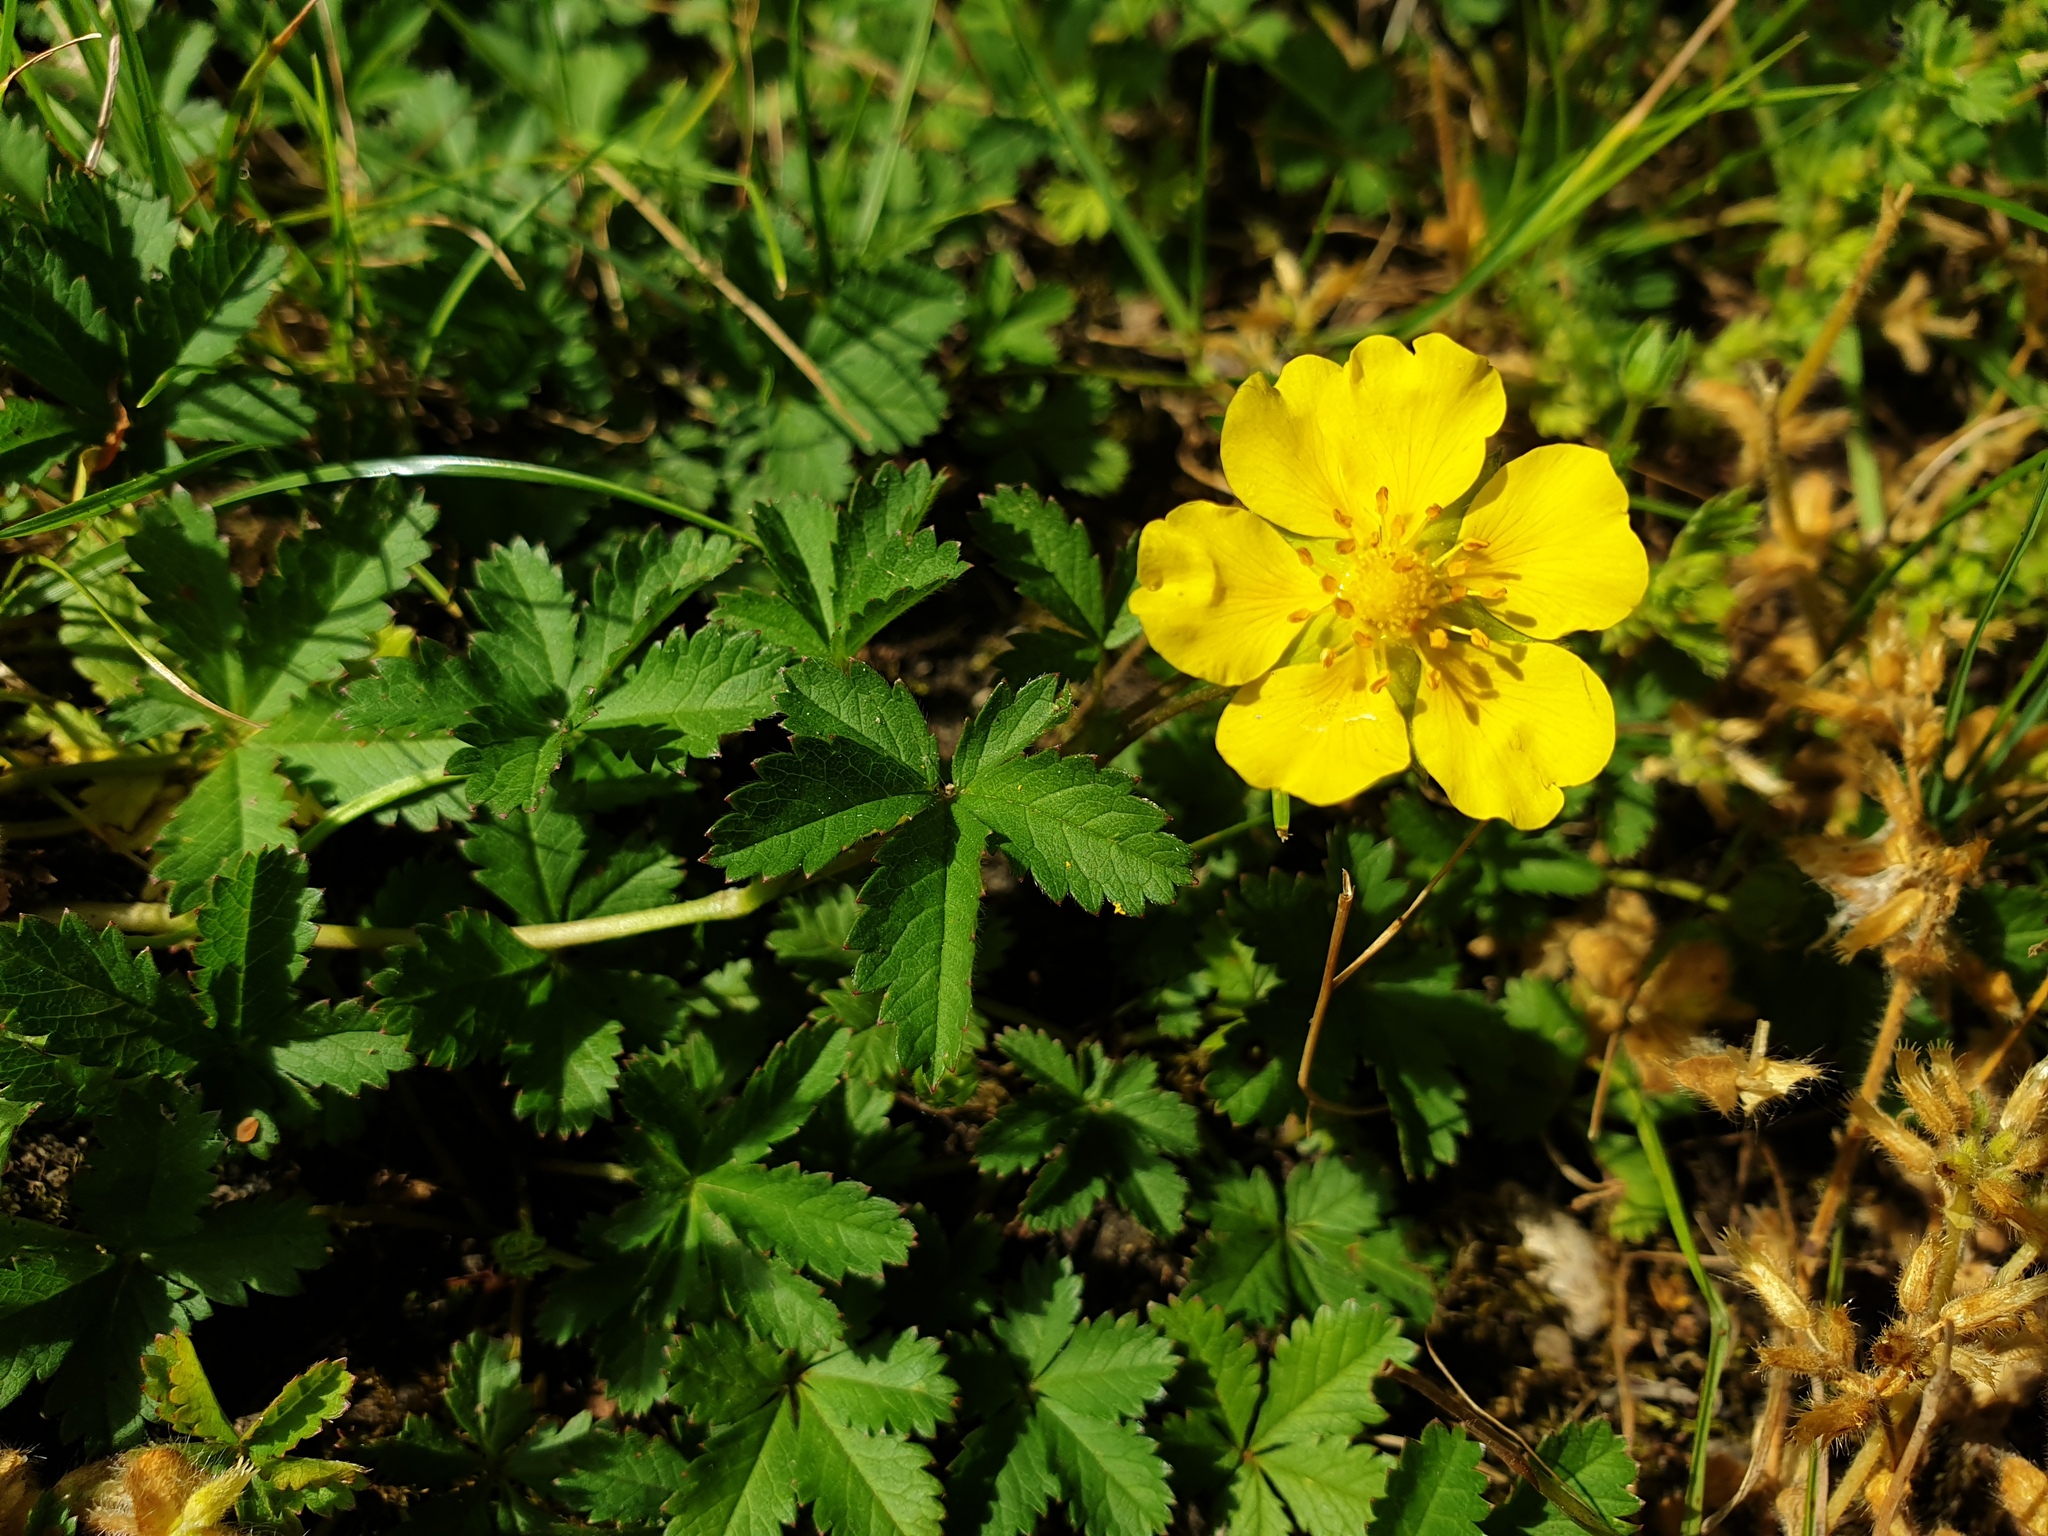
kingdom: Plantae
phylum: Tracheophyta
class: Magnoliopsida
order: Rosales
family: Rosaceae
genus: Potentilla
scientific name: Potentilla reptans
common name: Creeping cinquefoil
